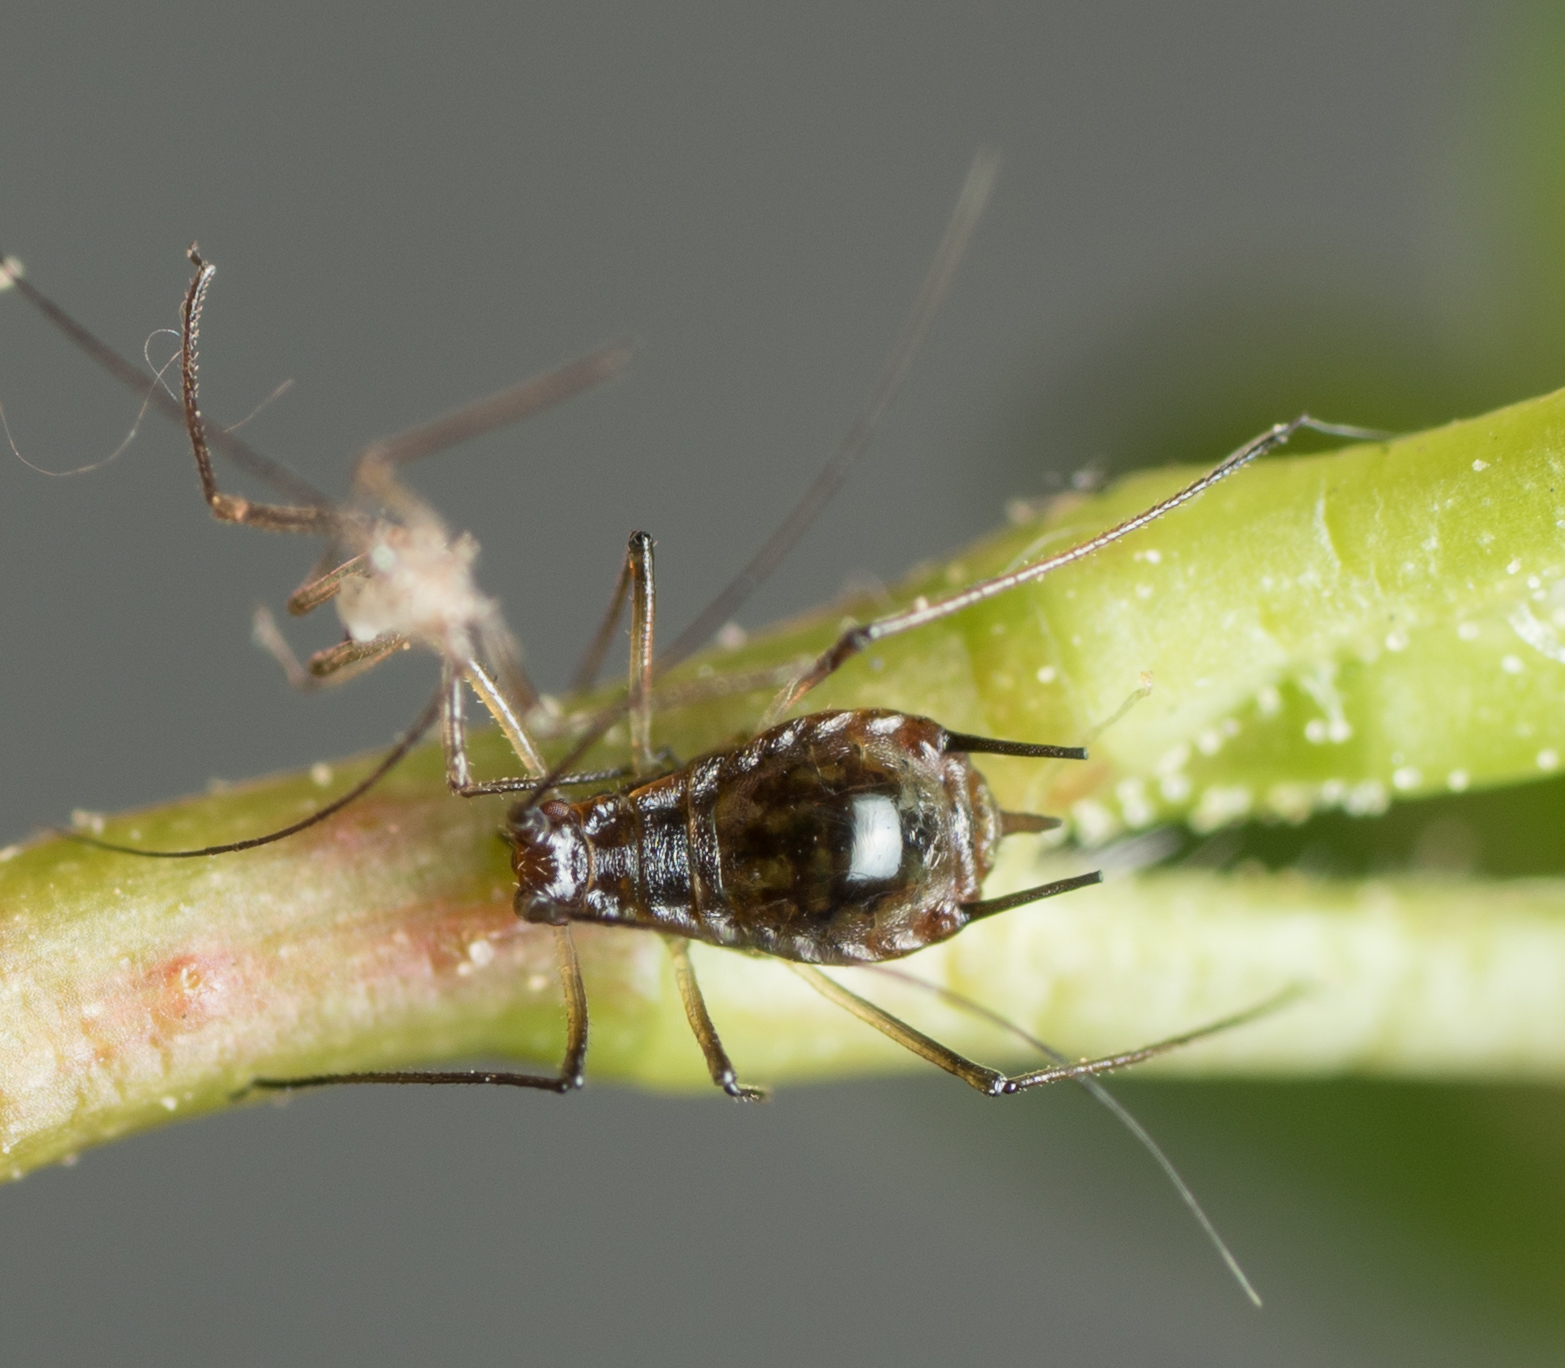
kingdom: Animalia
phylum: Arthropoda
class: Insecta
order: Hemiptera
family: Aphididae
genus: Macrosiphum
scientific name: Macrosiphum salviae
